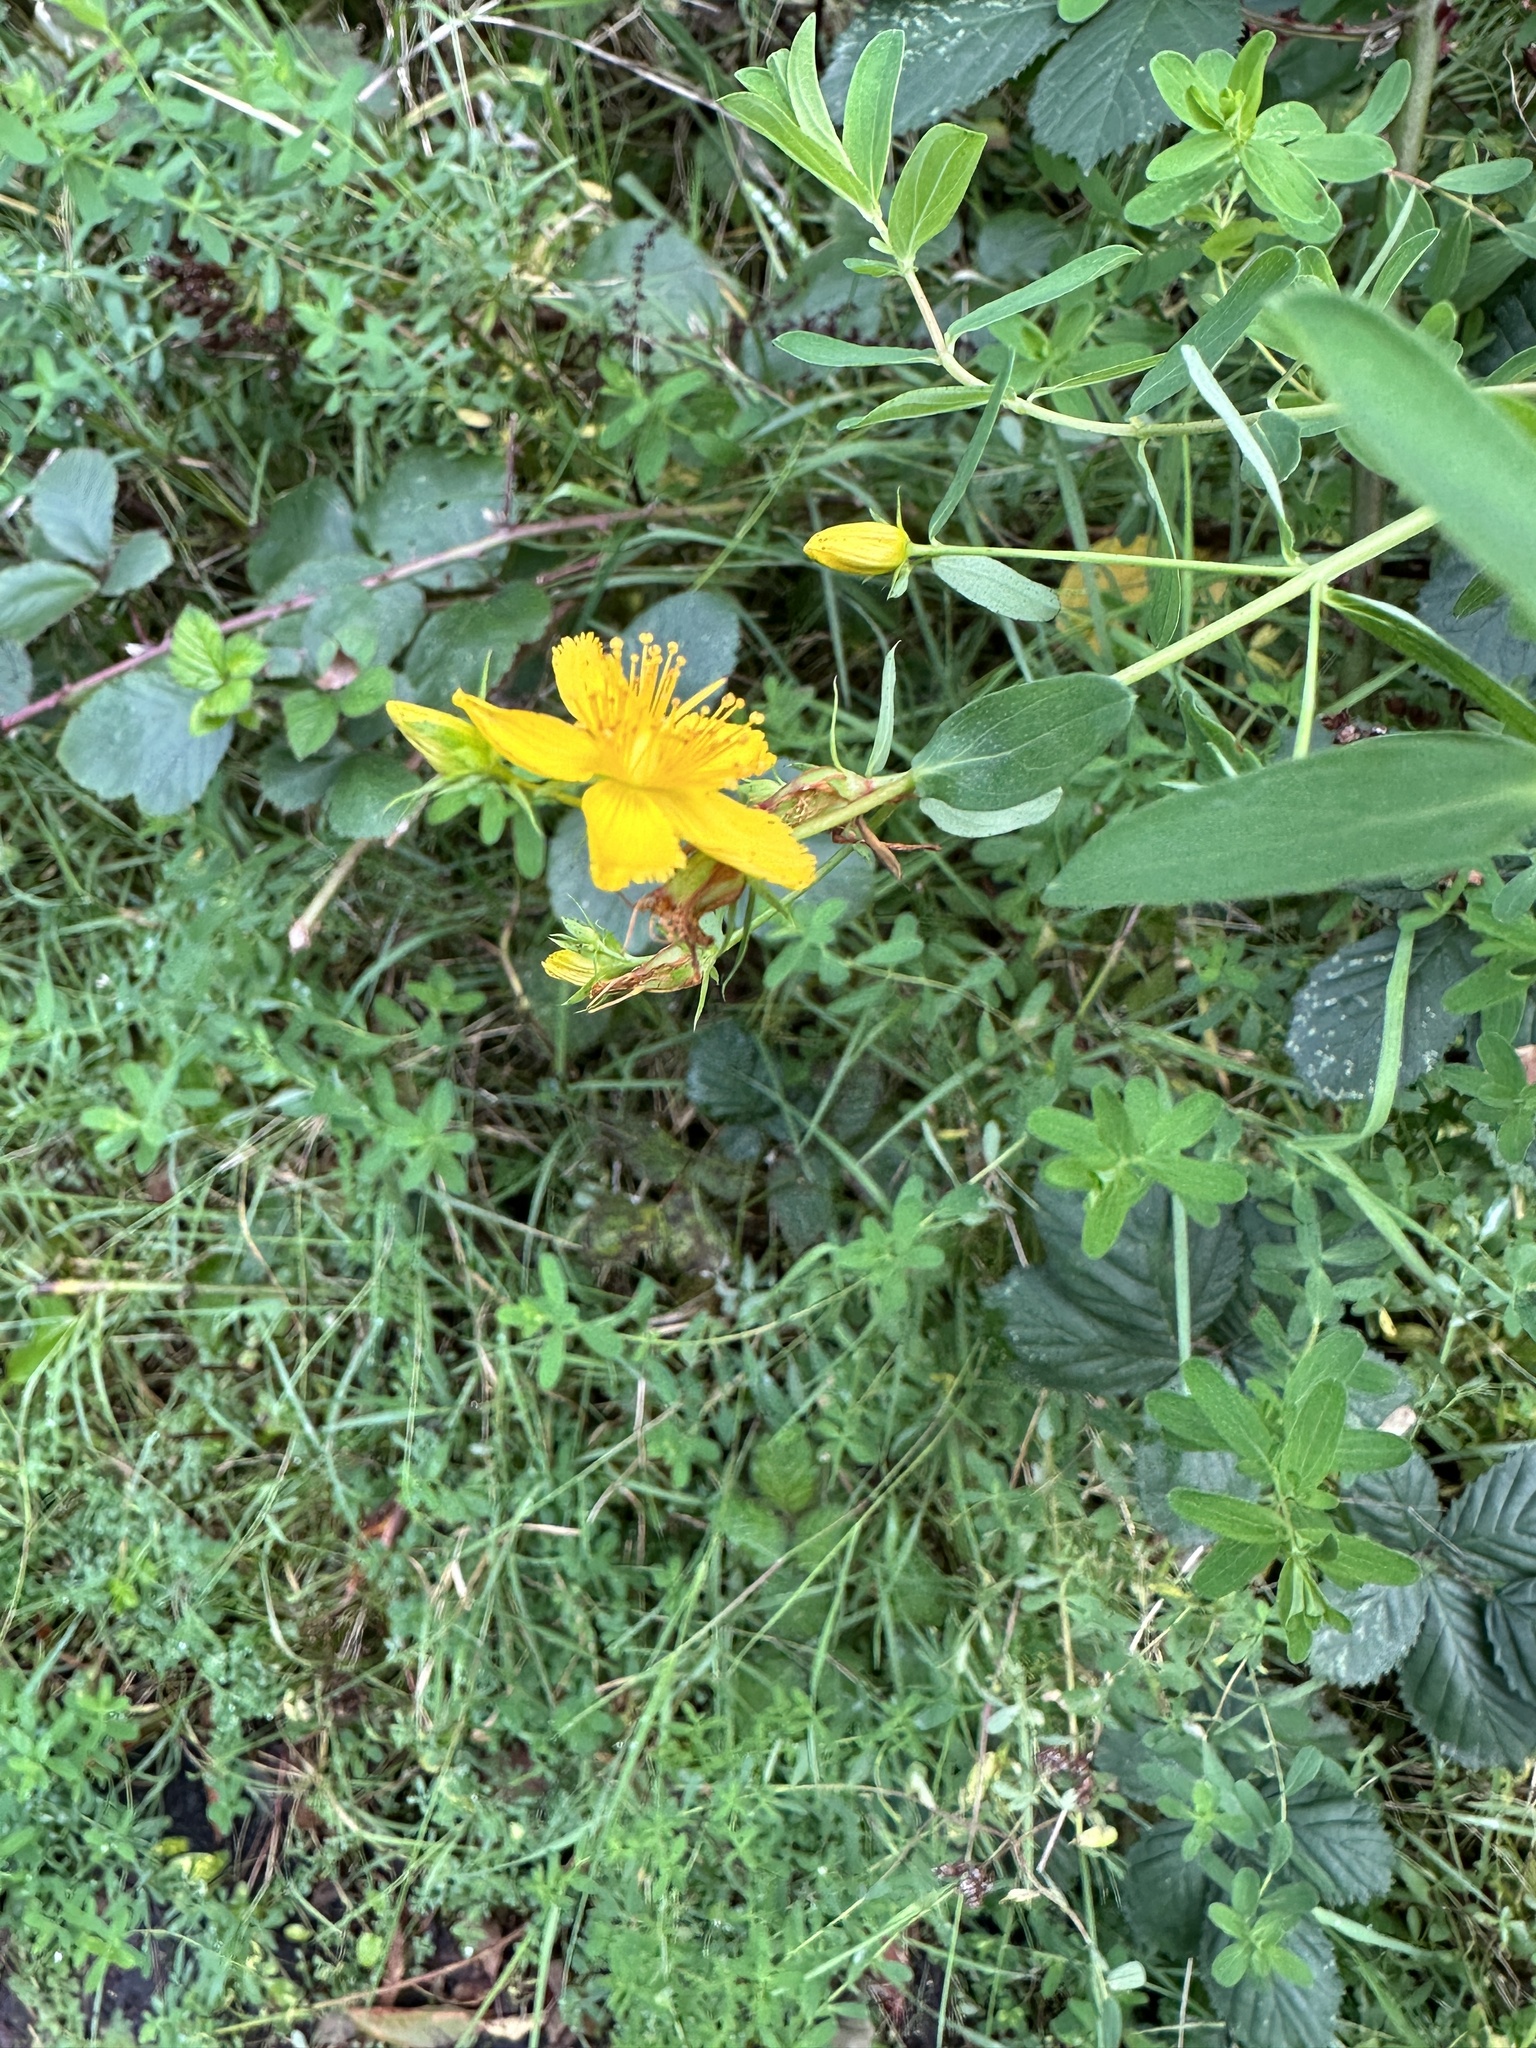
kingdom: Plantae
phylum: Tracheophyta
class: Magnoliopsida
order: Malpighiales
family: Hypericaceae
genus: Hypericum
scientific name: Hypericum perforatum
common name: Common st. johnswort
